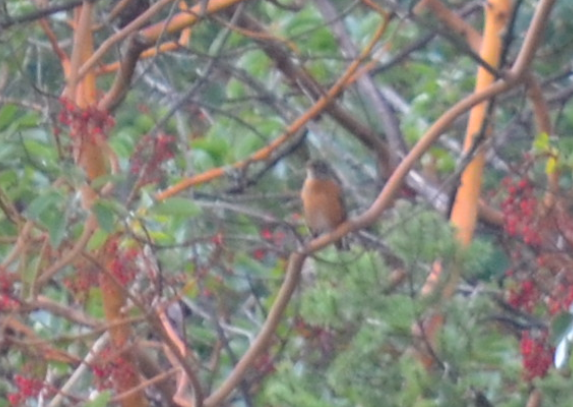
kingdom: Animalia
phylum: Chordata
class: Aves
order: Passeriformes
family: Turdidae
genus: Turdus
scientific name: Turdus migratorius
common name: American robin
